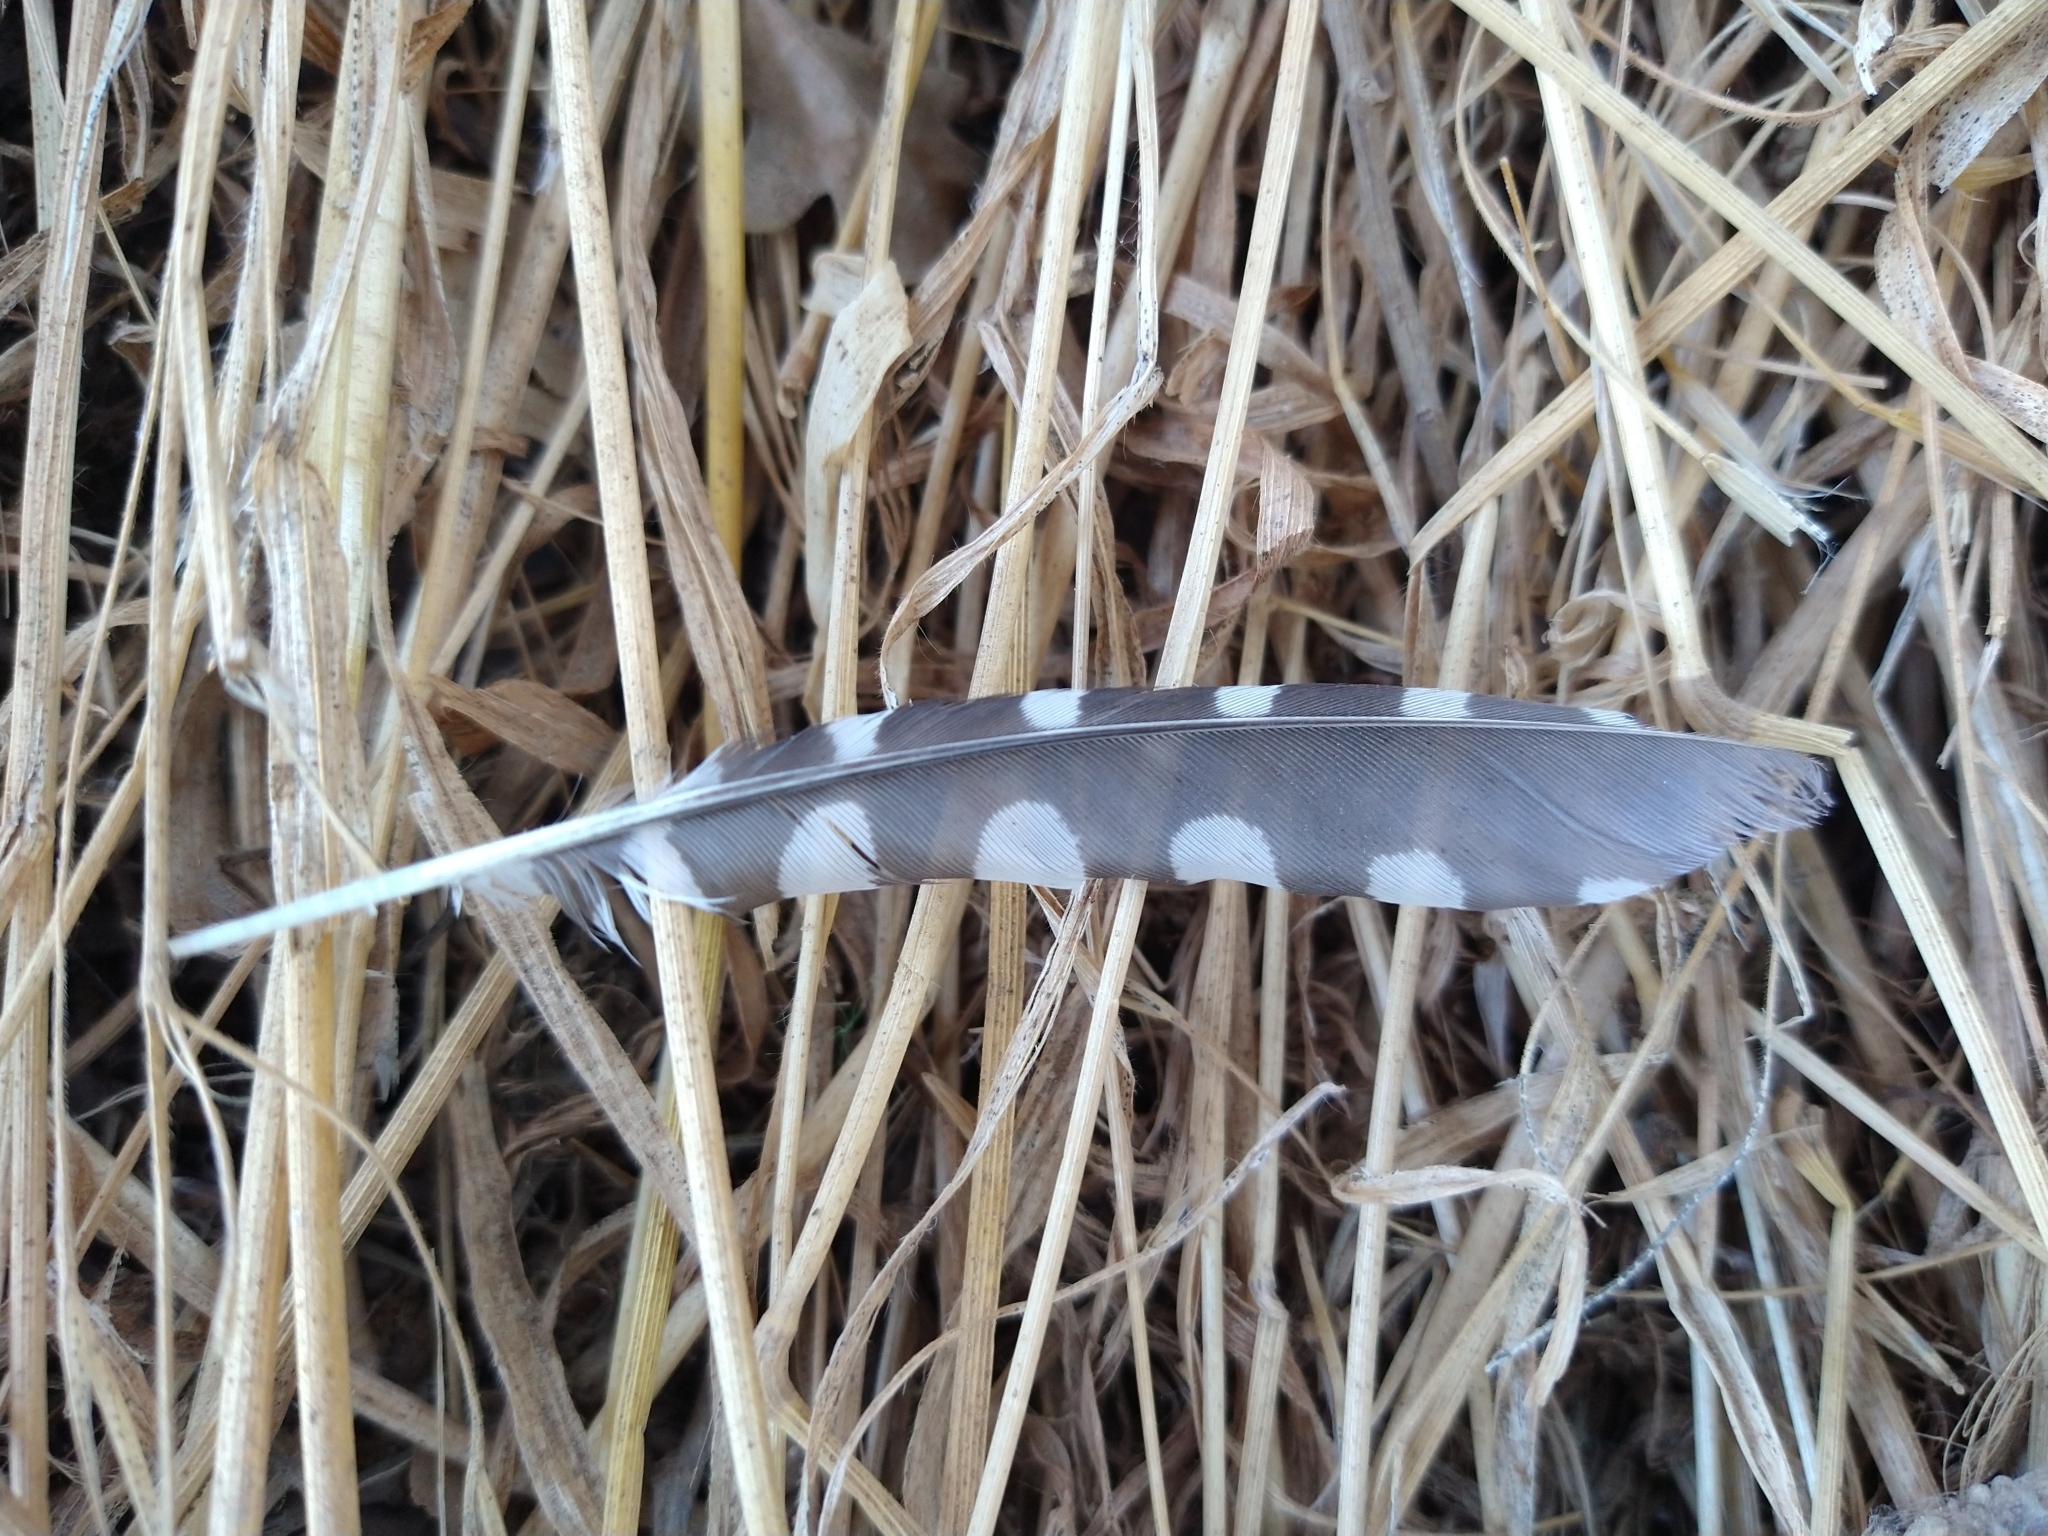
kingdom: Animalia
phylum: Chordata
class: Aves
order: Piciformes
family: Picidae
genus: Dryobates
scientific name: Dryobates nuttallii
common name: Nuttall's woodpecker
